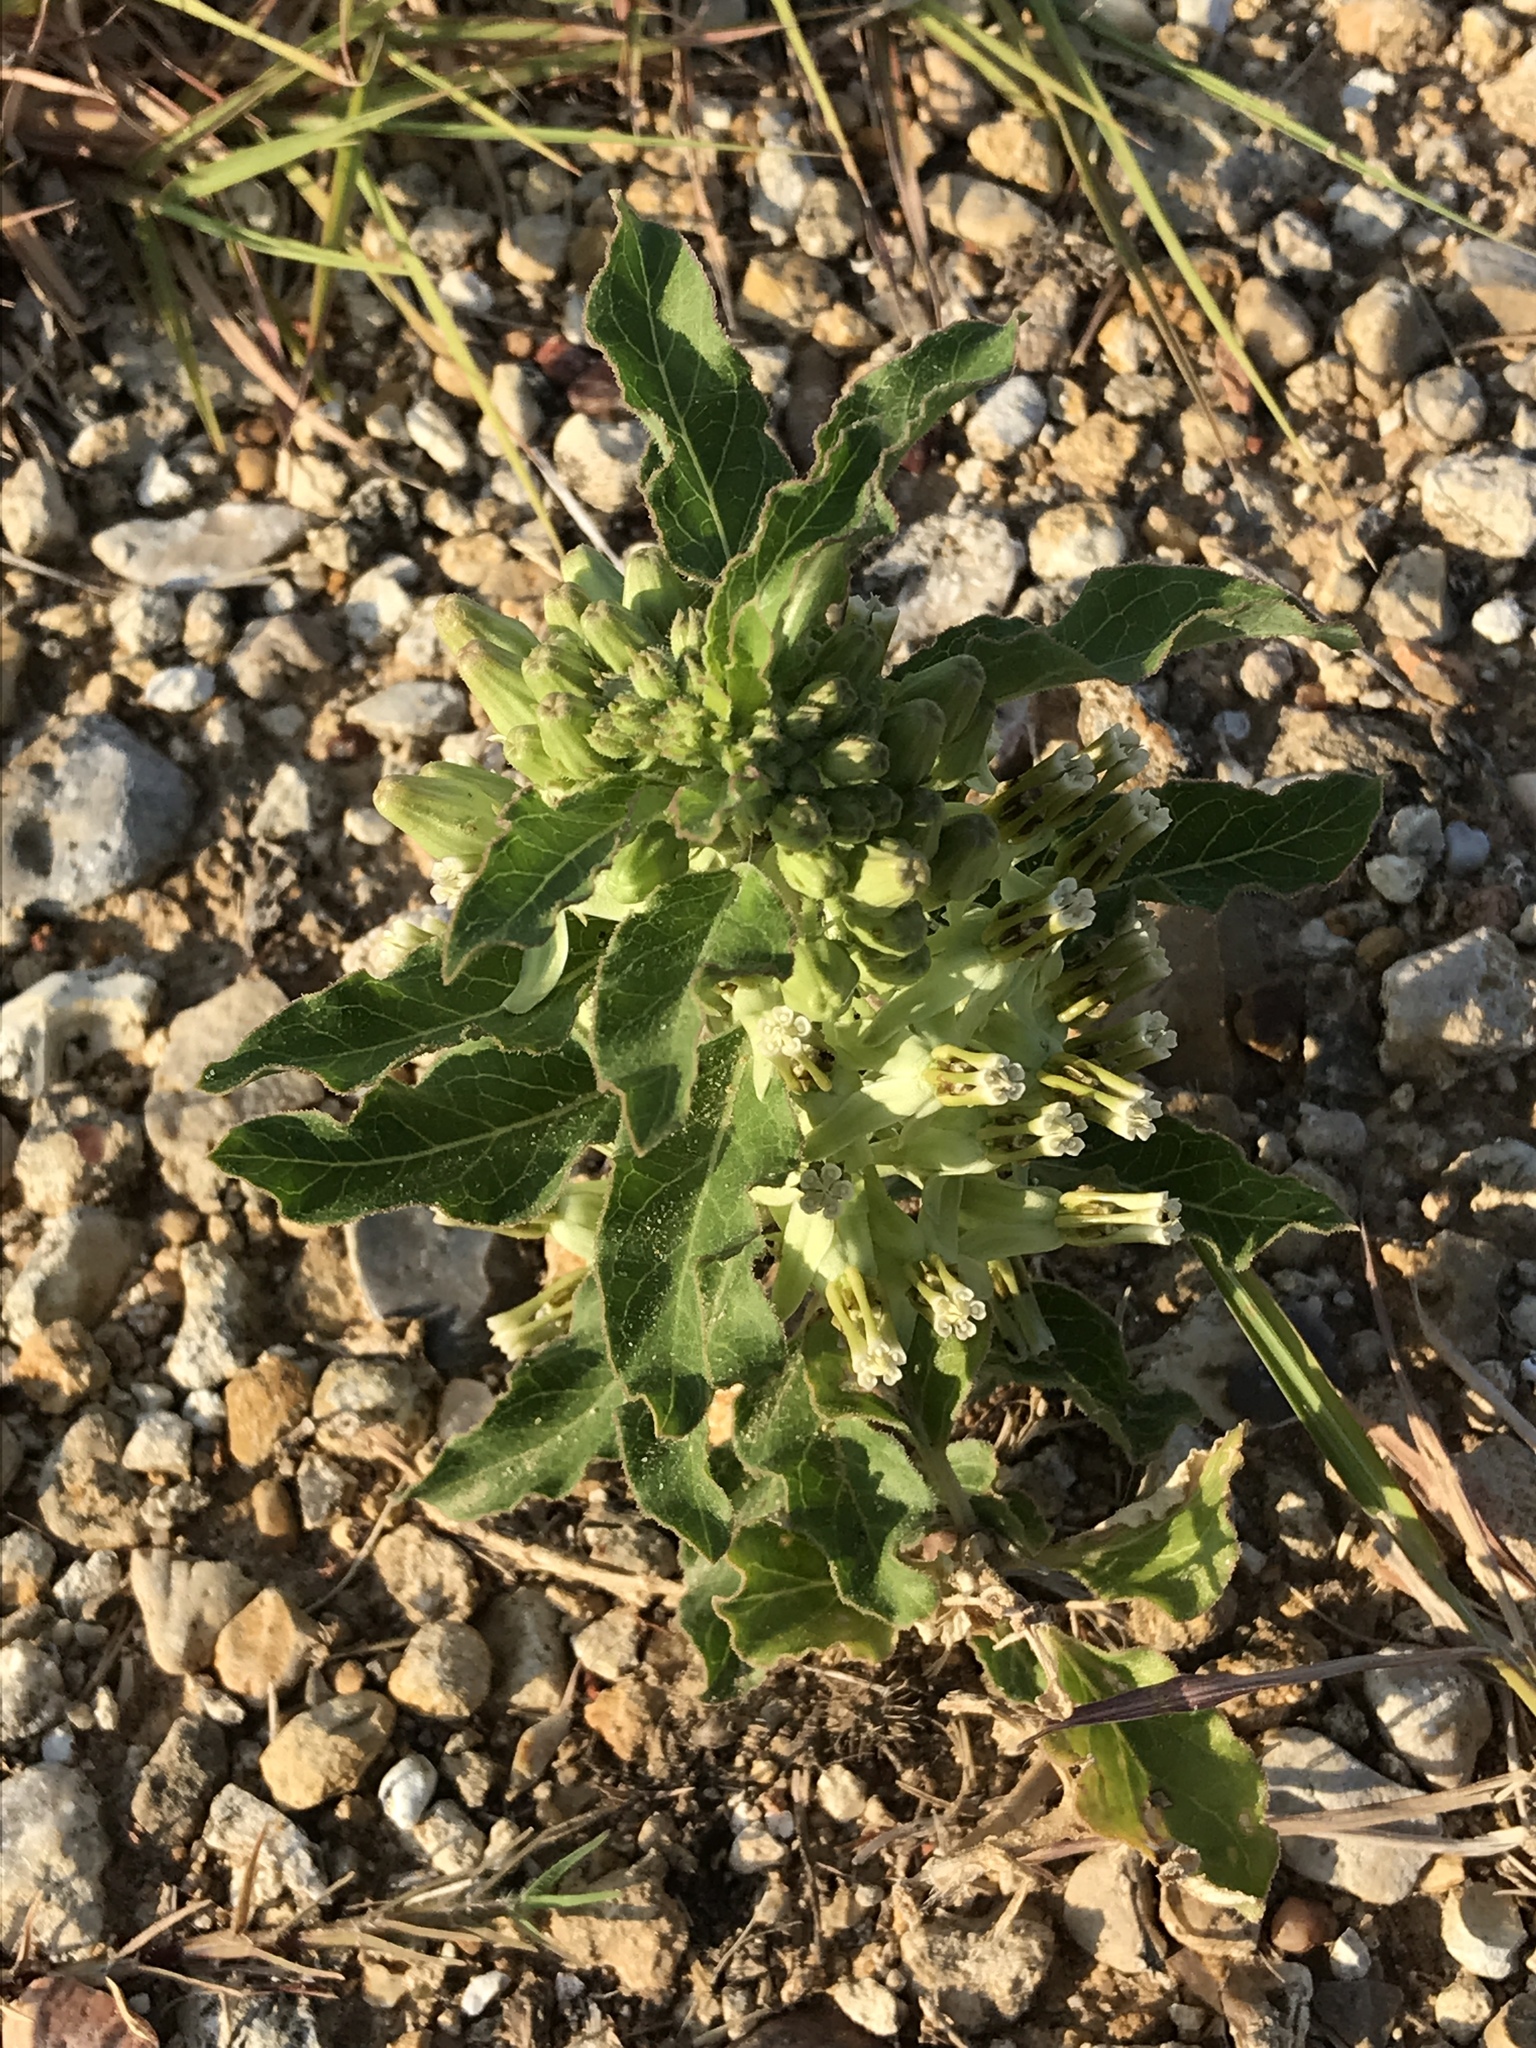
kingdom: Plantae
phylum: Tracheophyta
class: Magnoliopsida
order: Gentianales
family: Apocynaceae
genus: Asclepias
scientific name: Asclepias oenotheroides
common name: Zizotes milkweed
